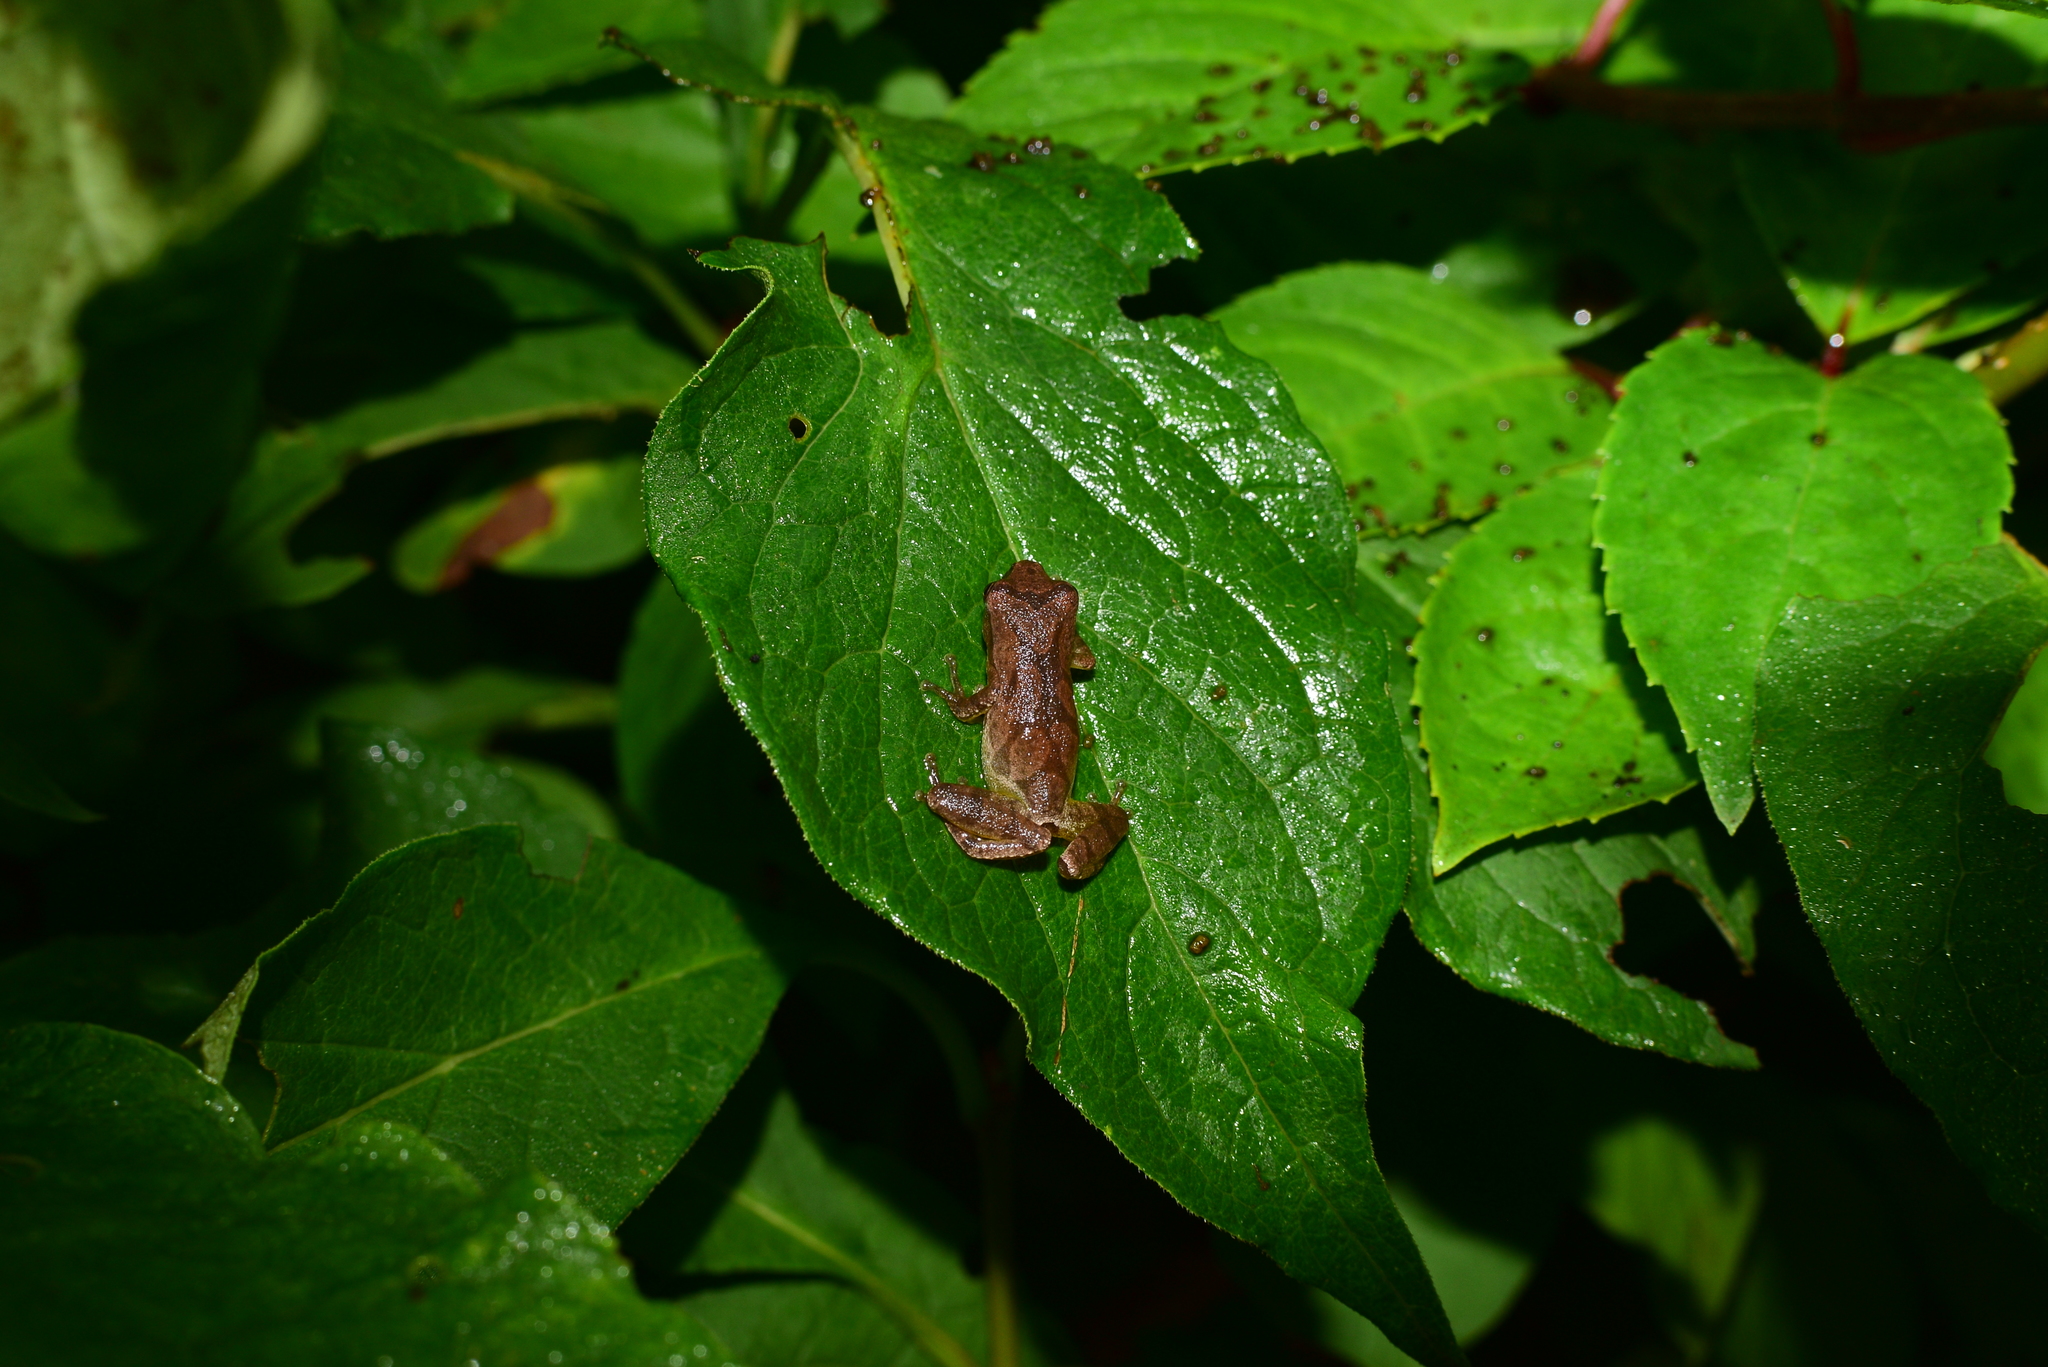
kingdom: Animalia
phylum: Chordata
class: Amphibia
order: Anura
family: Hylidae
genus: Pseudacris
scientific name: Pseudacris crucifer
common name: Spring peeper
